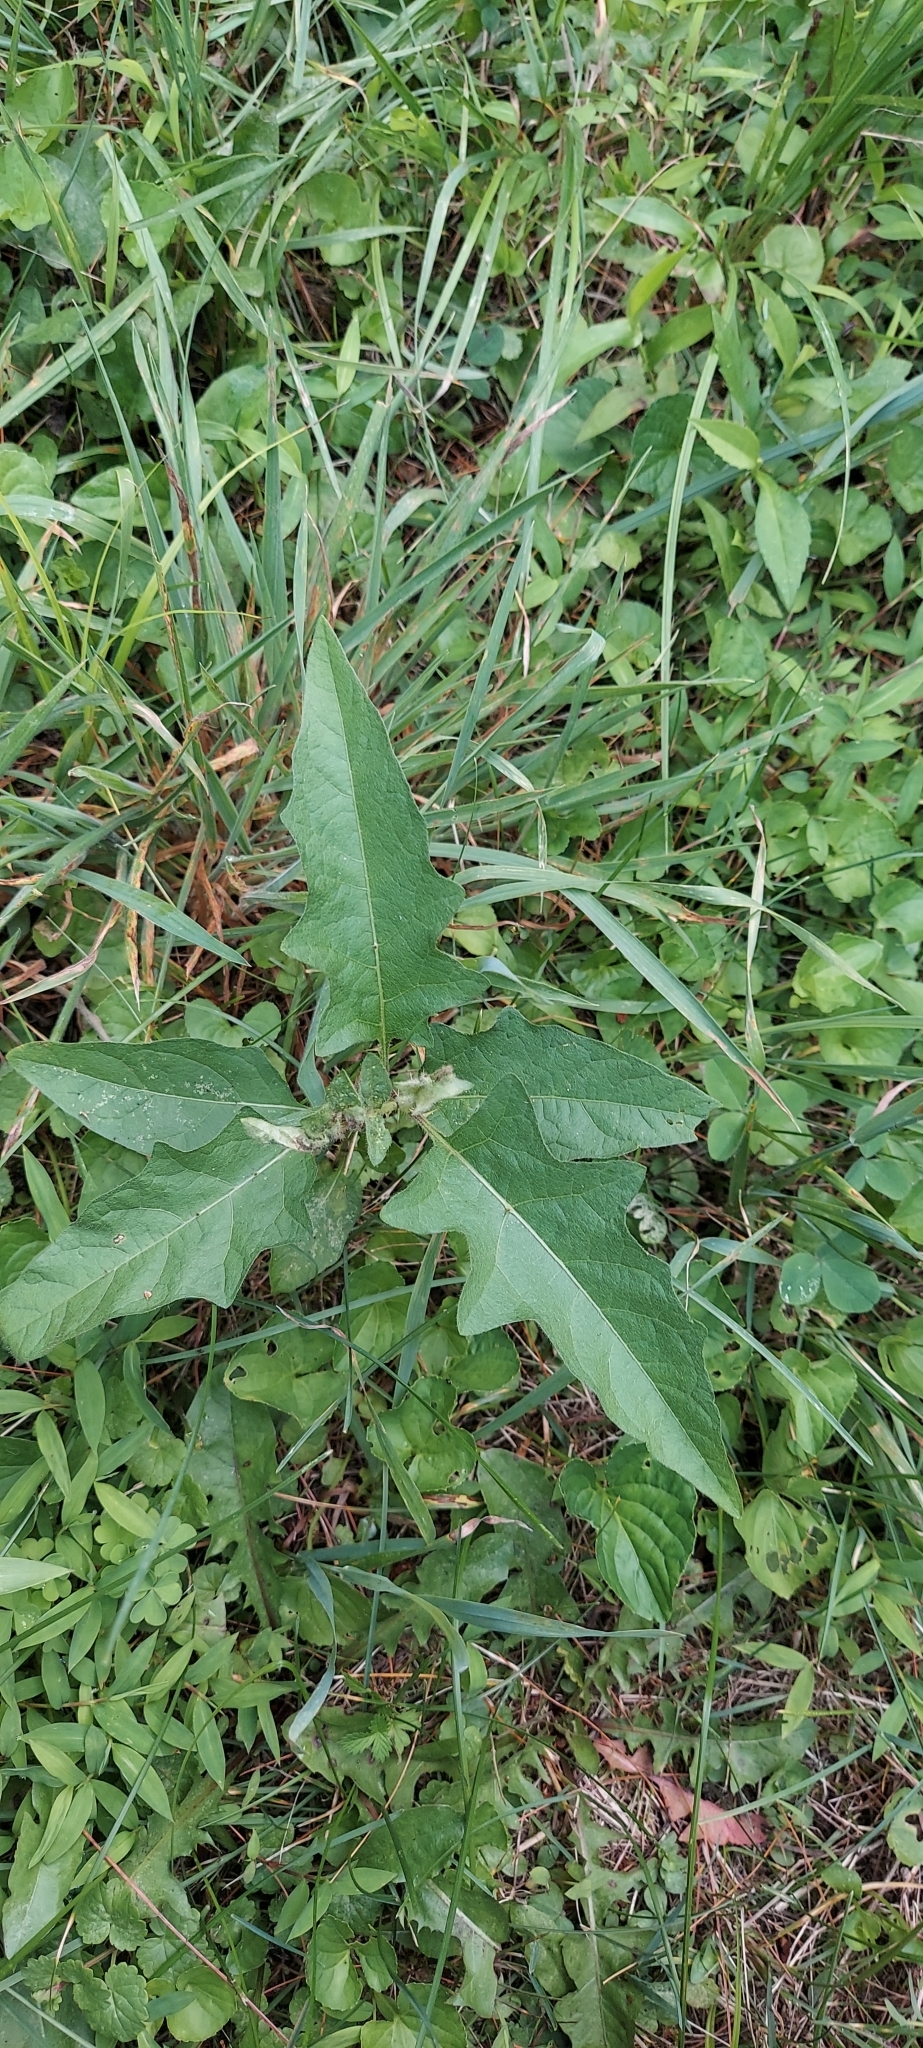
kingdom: Plantae
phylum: Tracheophyta
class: Magnoliopsida
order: Solanales
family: Solanaceae
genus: Solanum
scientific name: Solanum carolinense
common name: Horse-nettle
